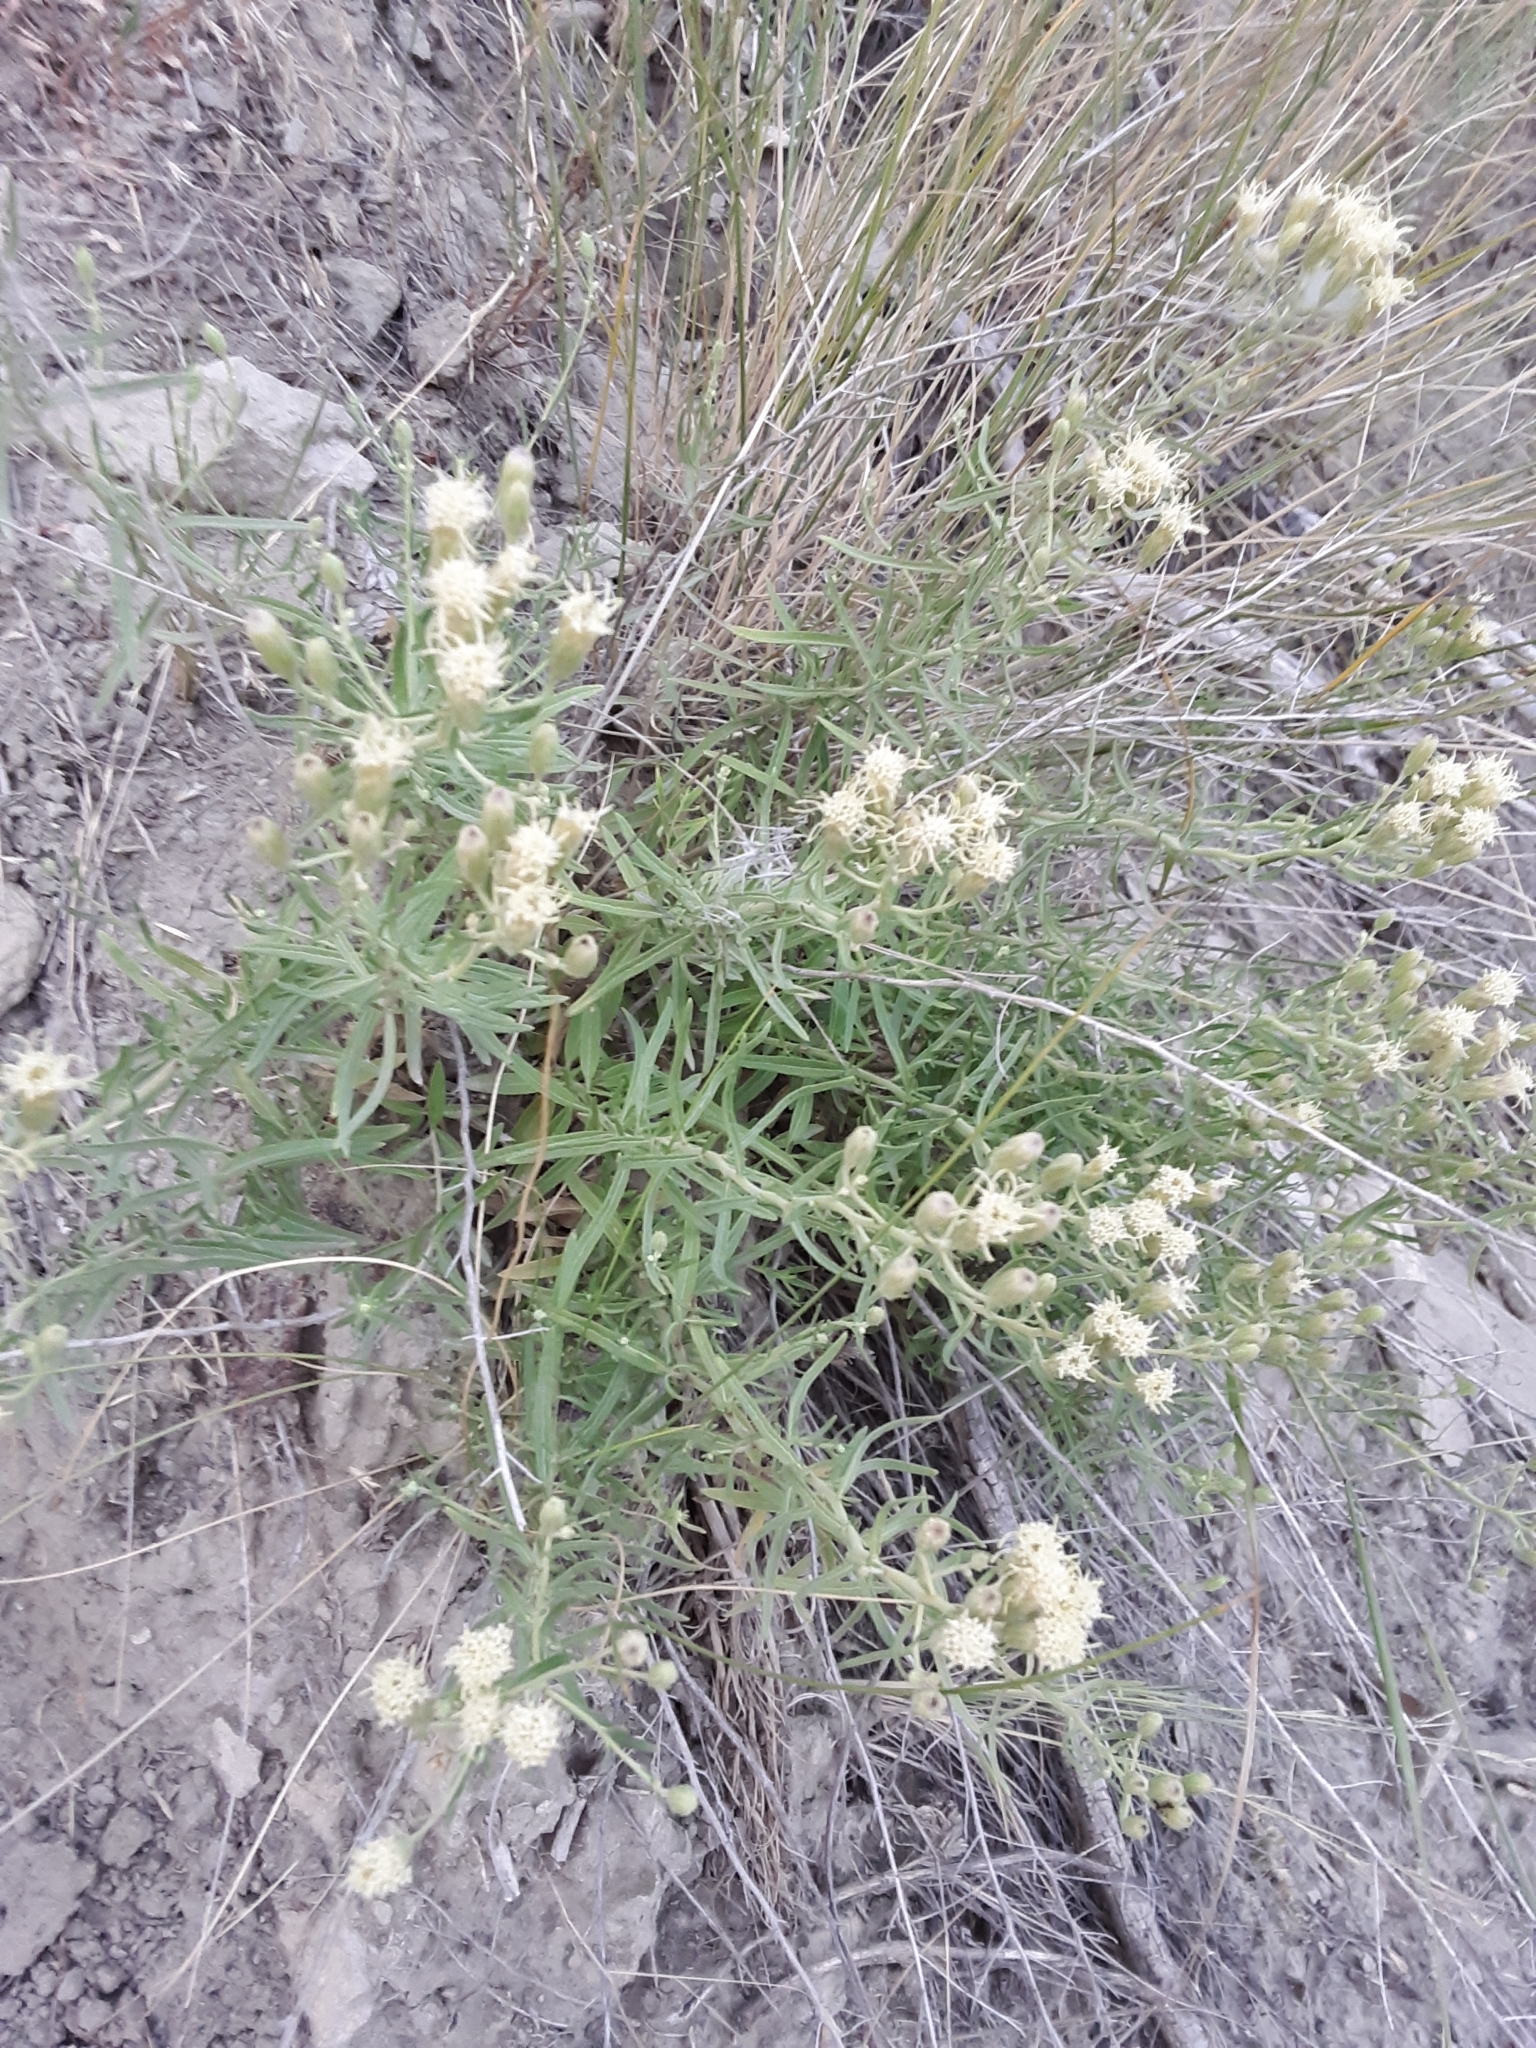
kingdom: Plantae
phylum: Tracheophyta
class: Magnoliopsida
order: Asterales
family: Asteraceae
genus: Brickellia
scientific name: Brickellia eupatorioides
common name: False boneset
